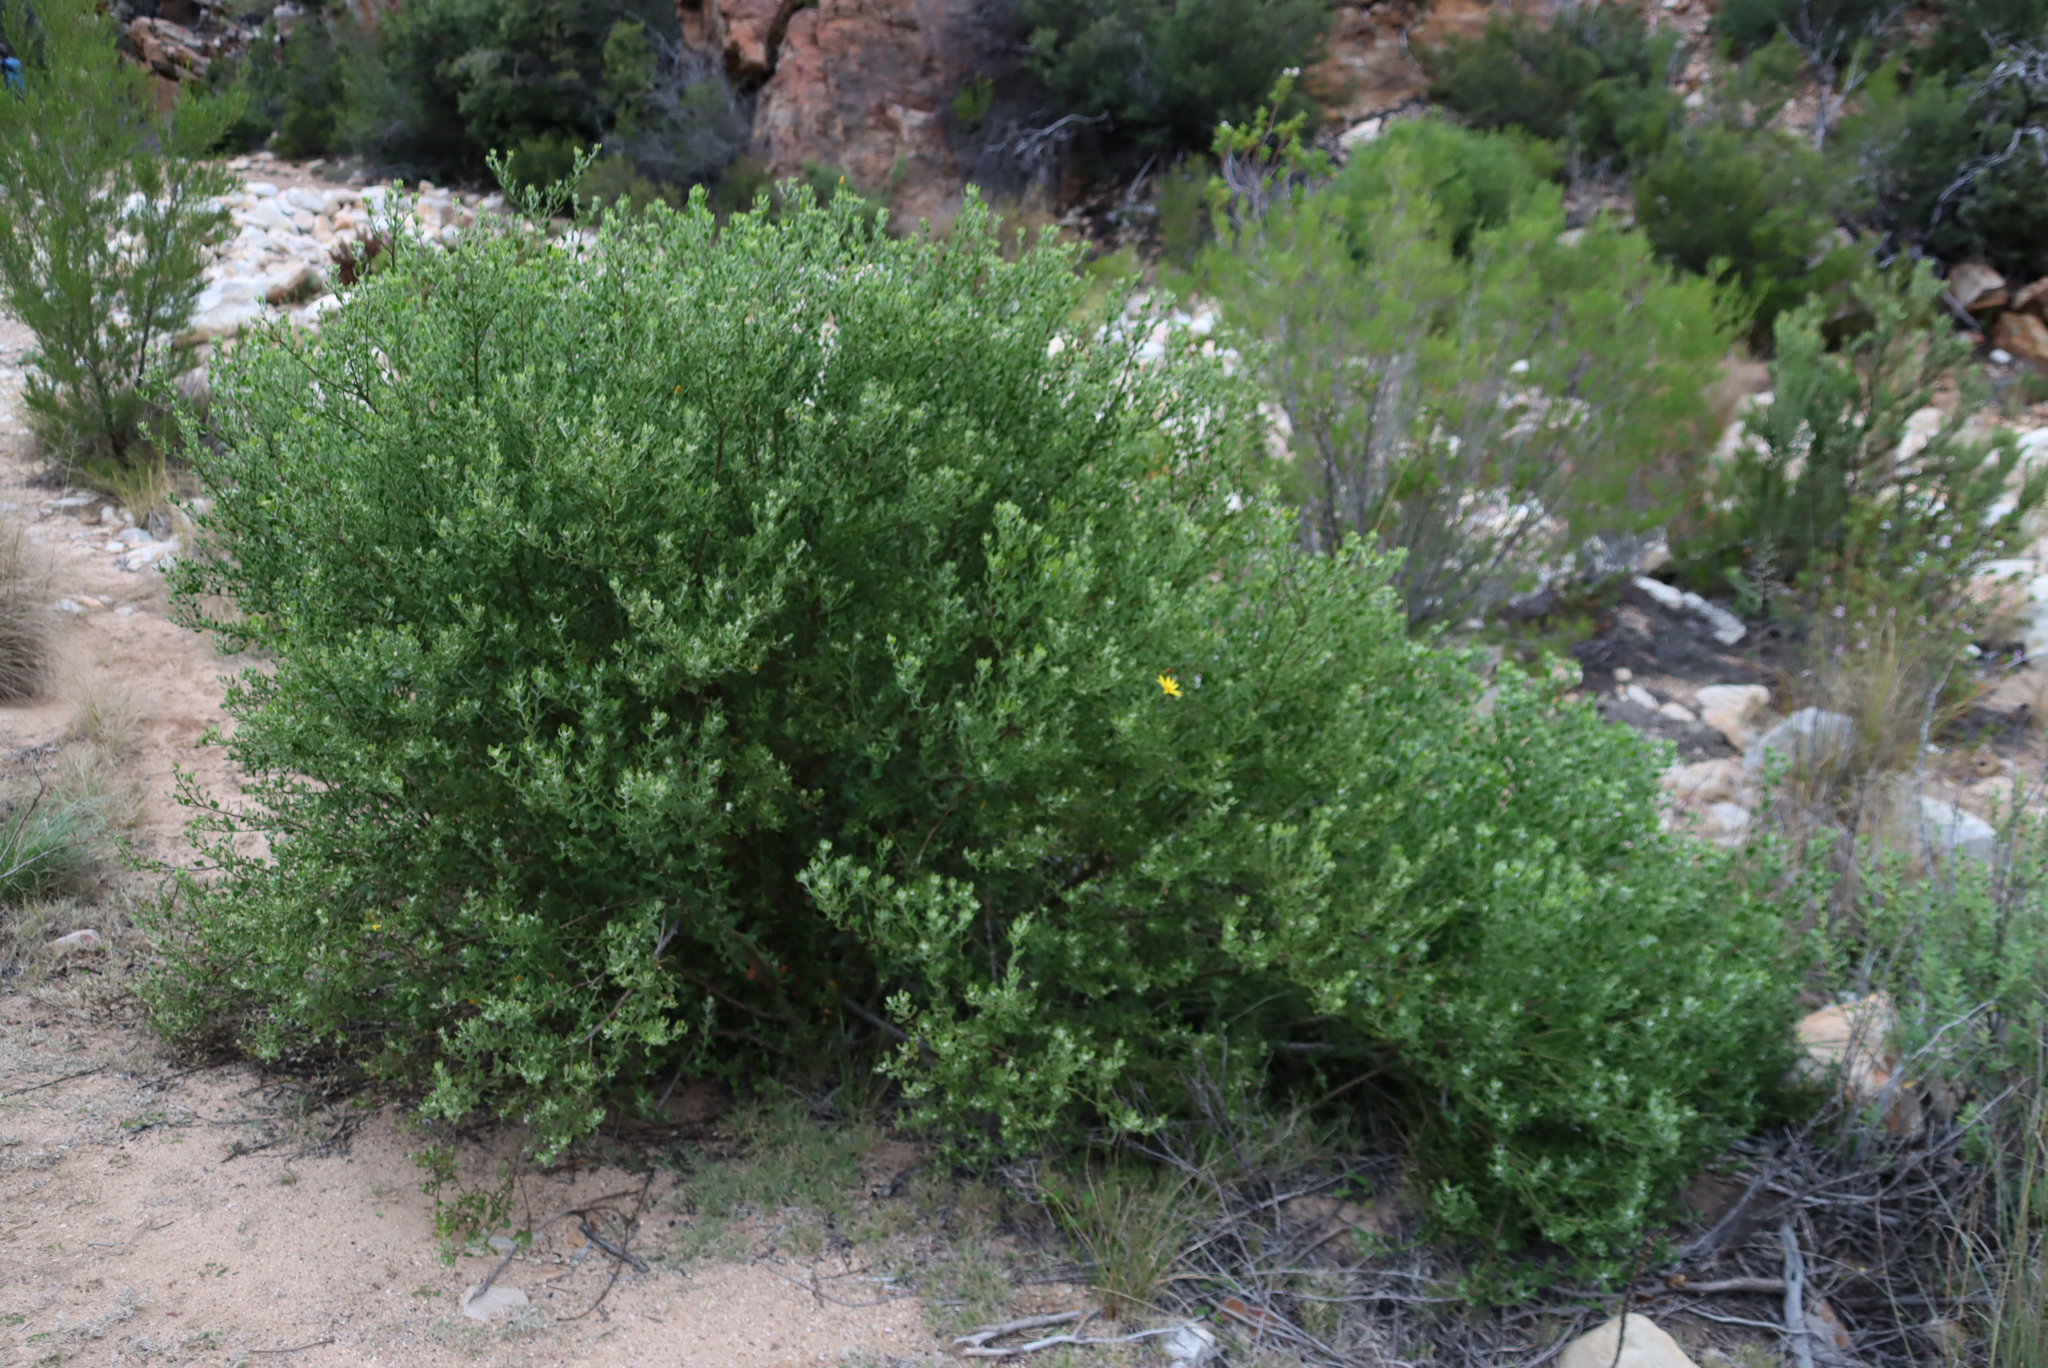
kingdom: Plantae
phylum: Tracheophyta
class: Magnoliopsida
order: Asterales
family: Asteraceae
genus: Osteospermum
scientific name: Osteospermum moniliferum
